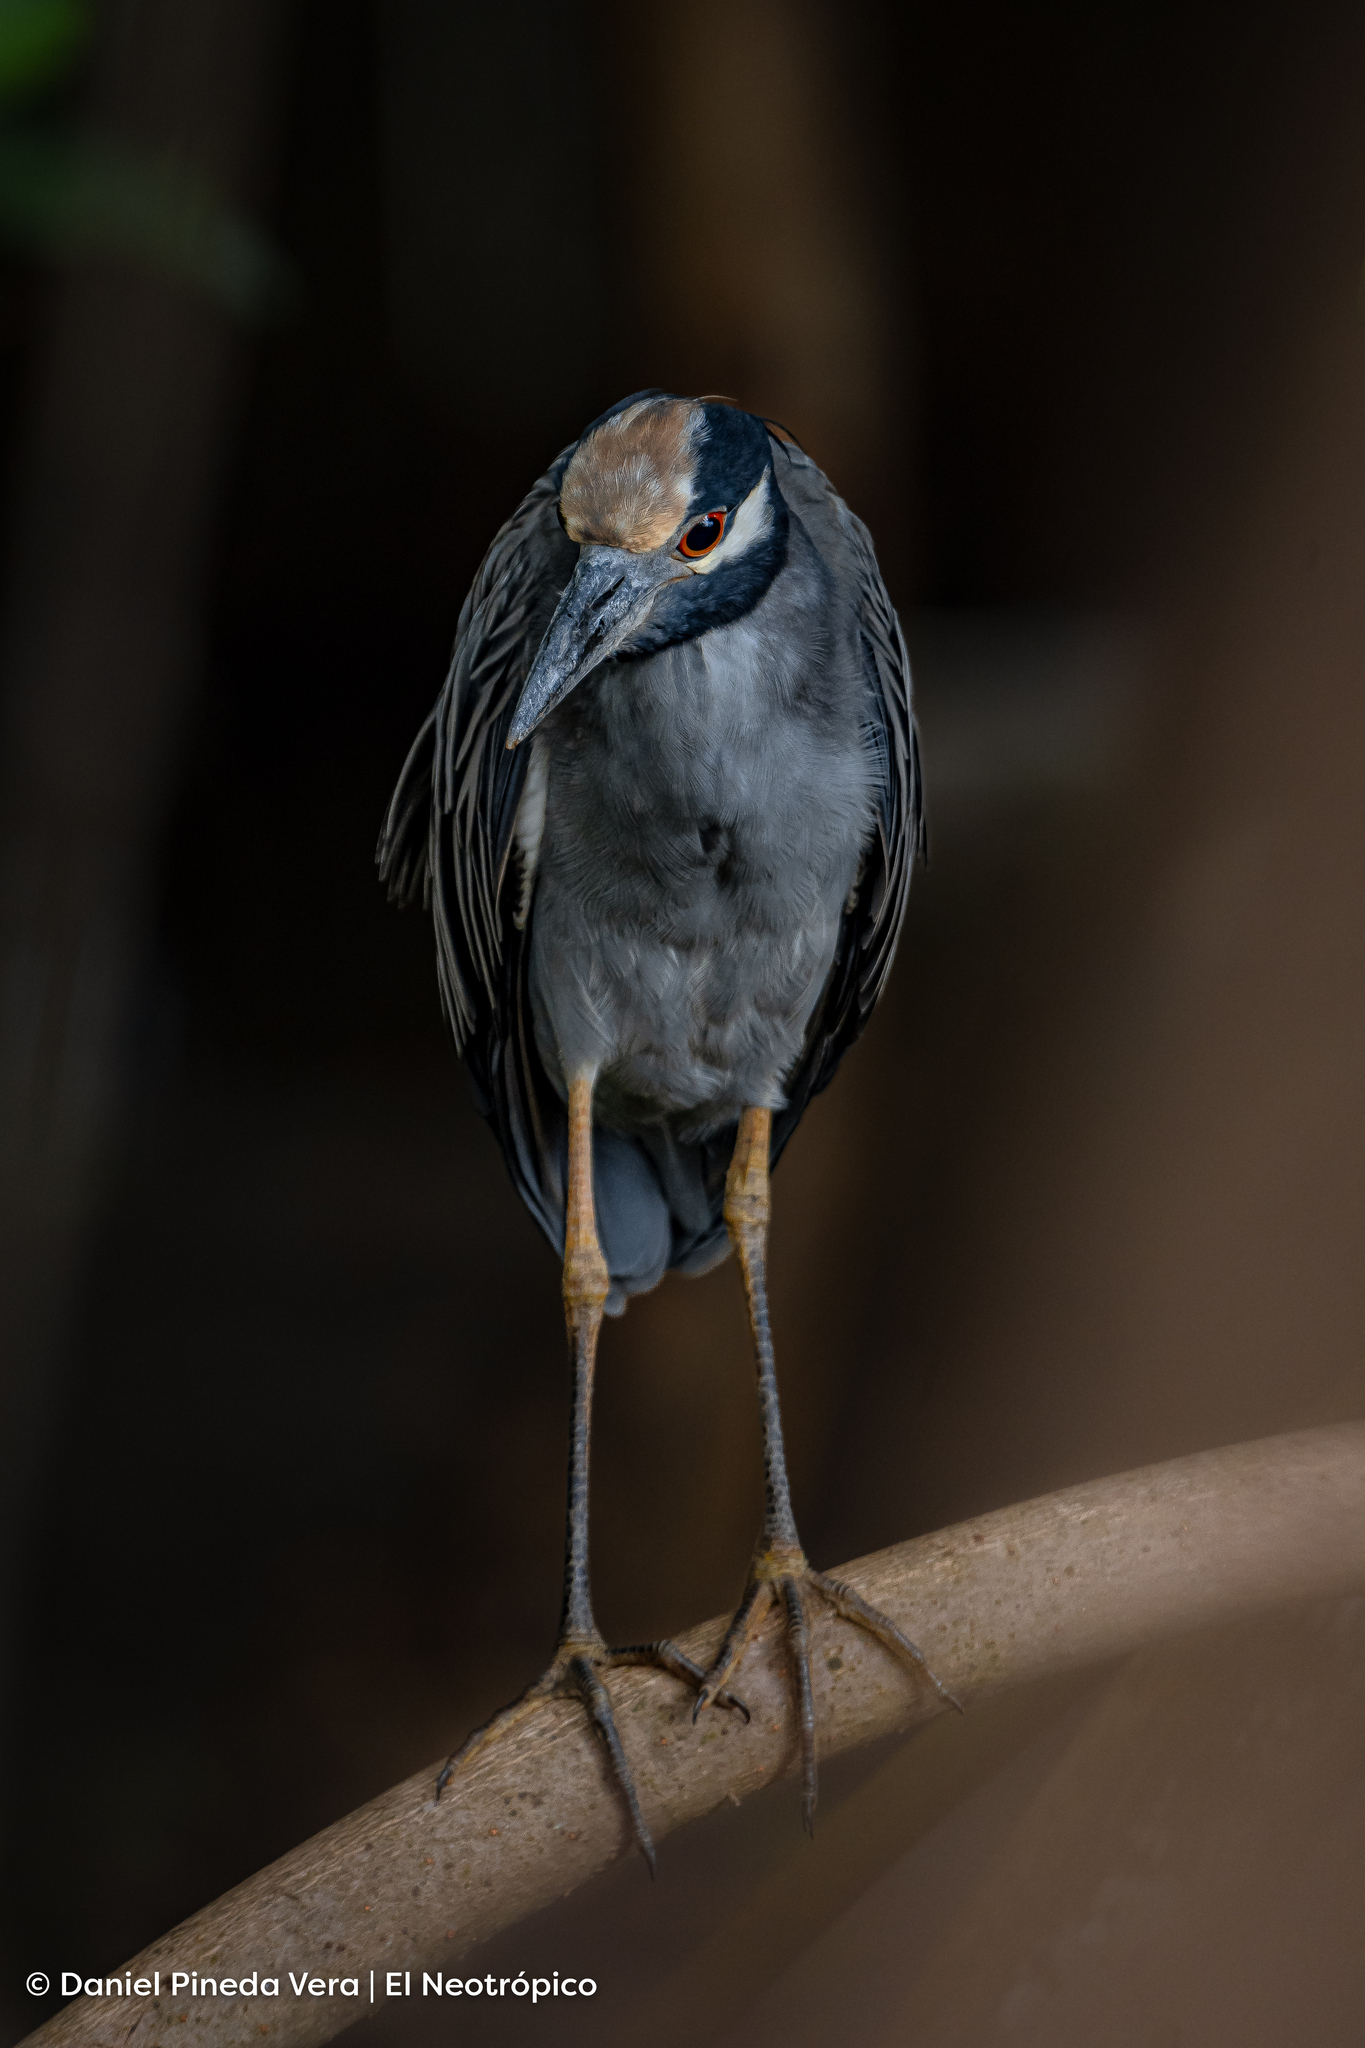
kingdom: Animalia
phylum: Chordata
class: Aves
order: Pelecaniformes
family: Ardeidae
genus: Nyctanassa
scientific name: Nyctanassa violacea
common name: Yellow-crowned night heron
